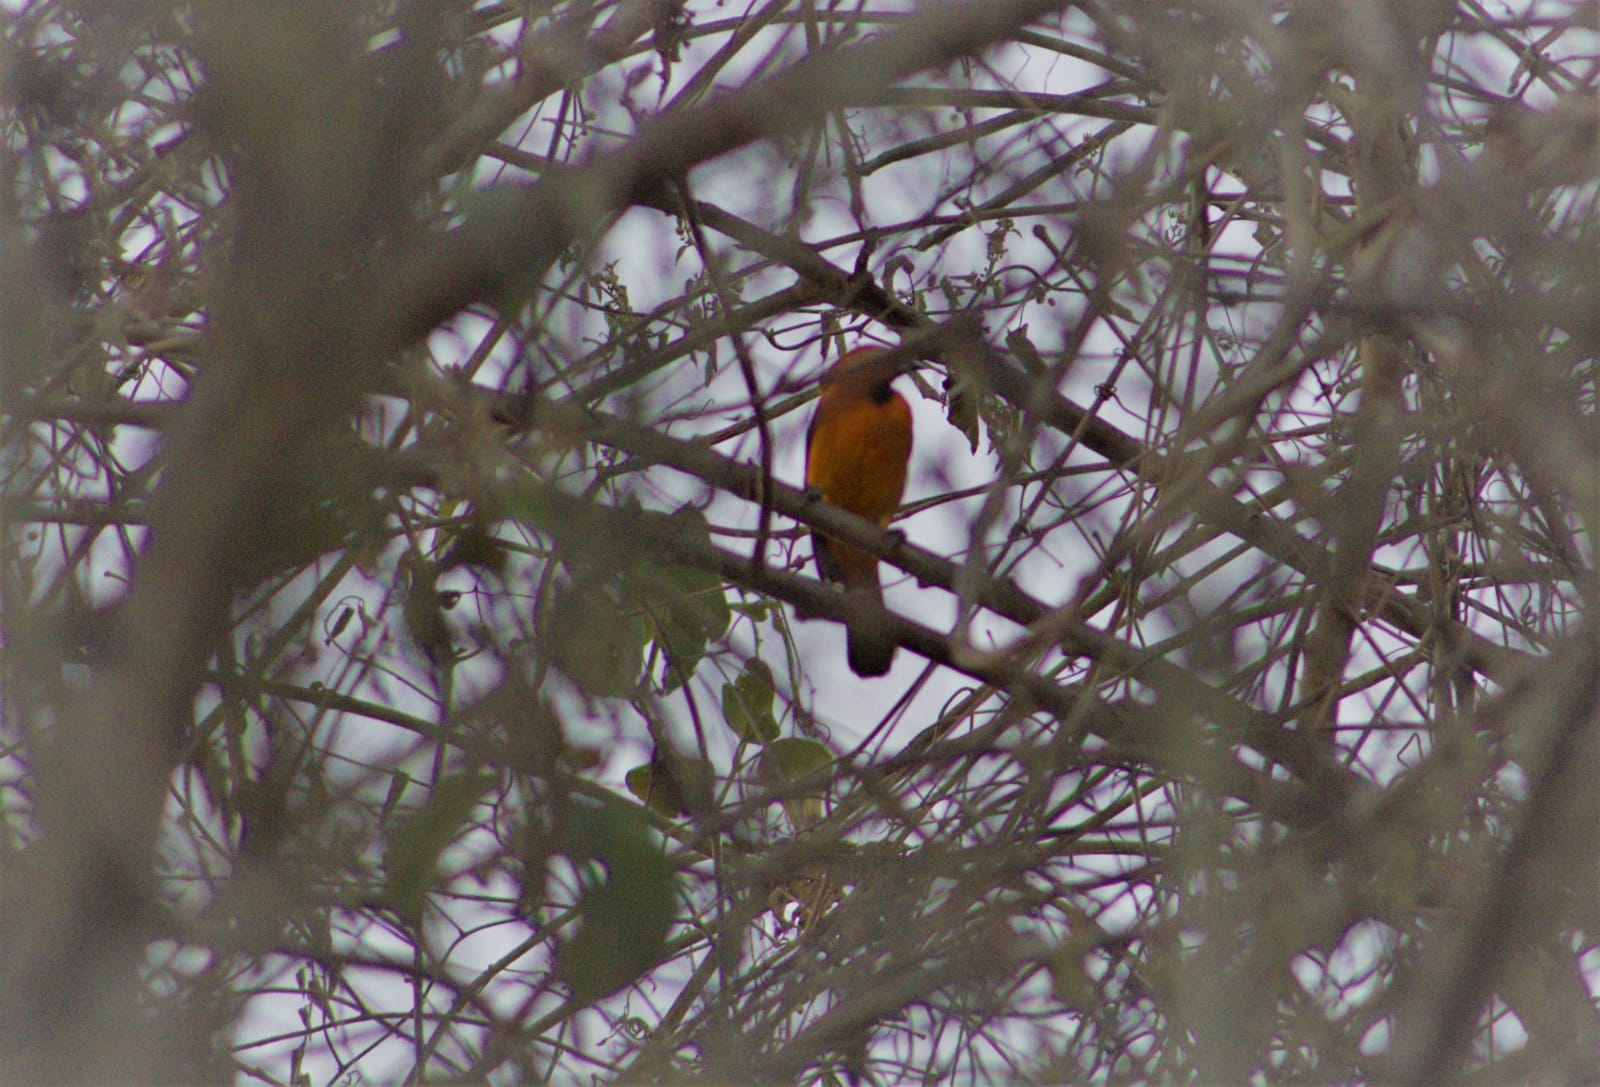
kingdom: Animalia
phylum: Chordata
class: Aves
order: Passeriformes
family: Icteridae
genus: Icterus
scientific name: Icterus gularis
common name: Altamira oriole
